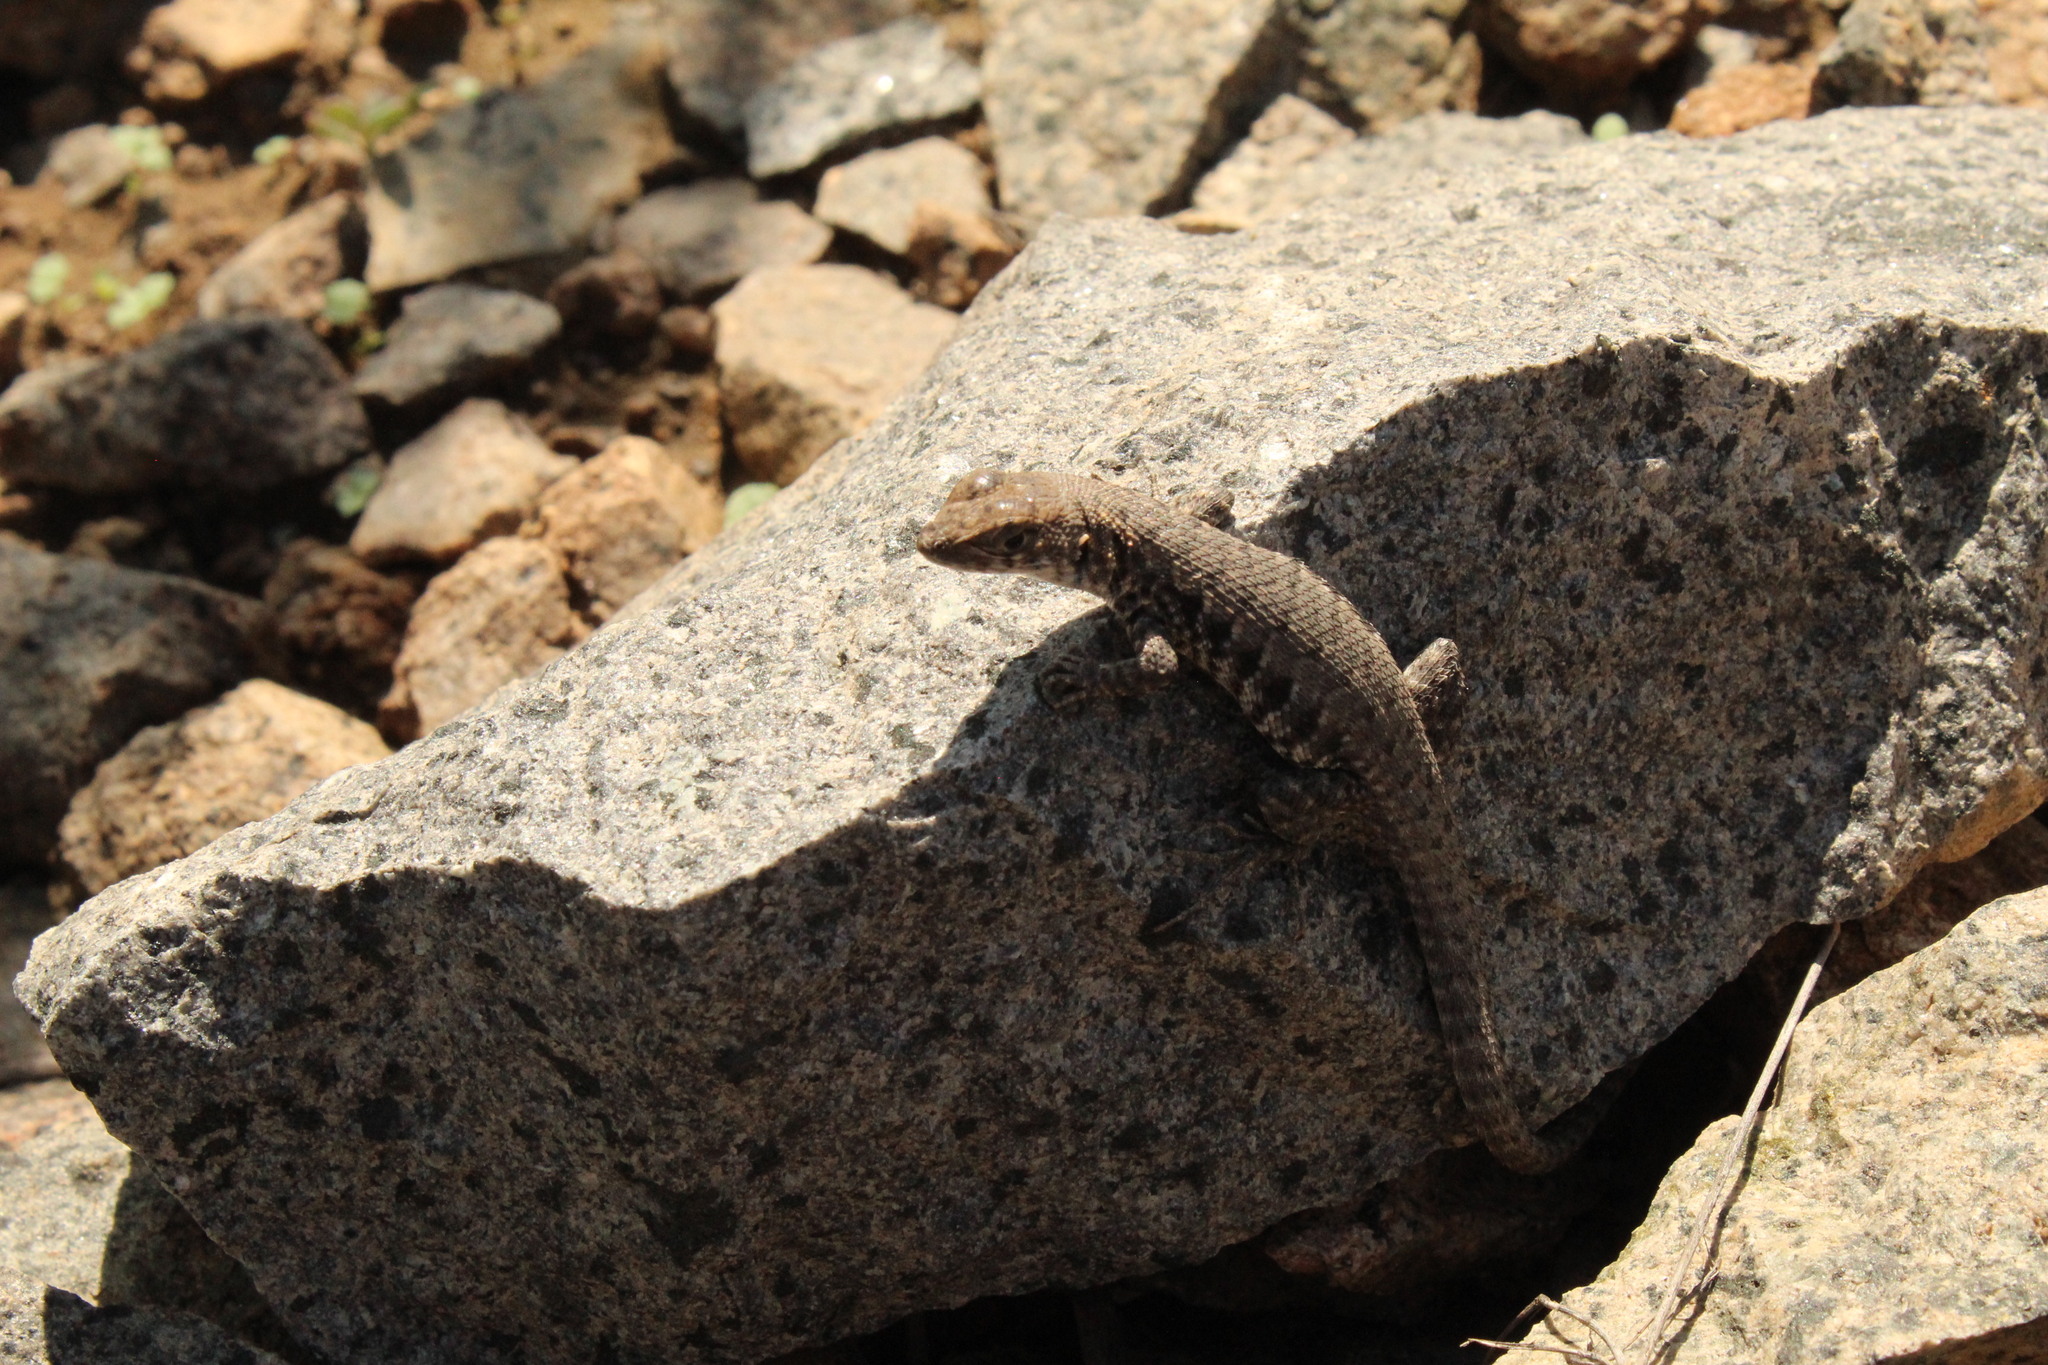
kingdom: Animalia
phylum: Chordata
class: Squamata
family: Liolaemidae
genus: Liolaemus
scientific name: Liolaemus platei
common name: Braided tree iguana
